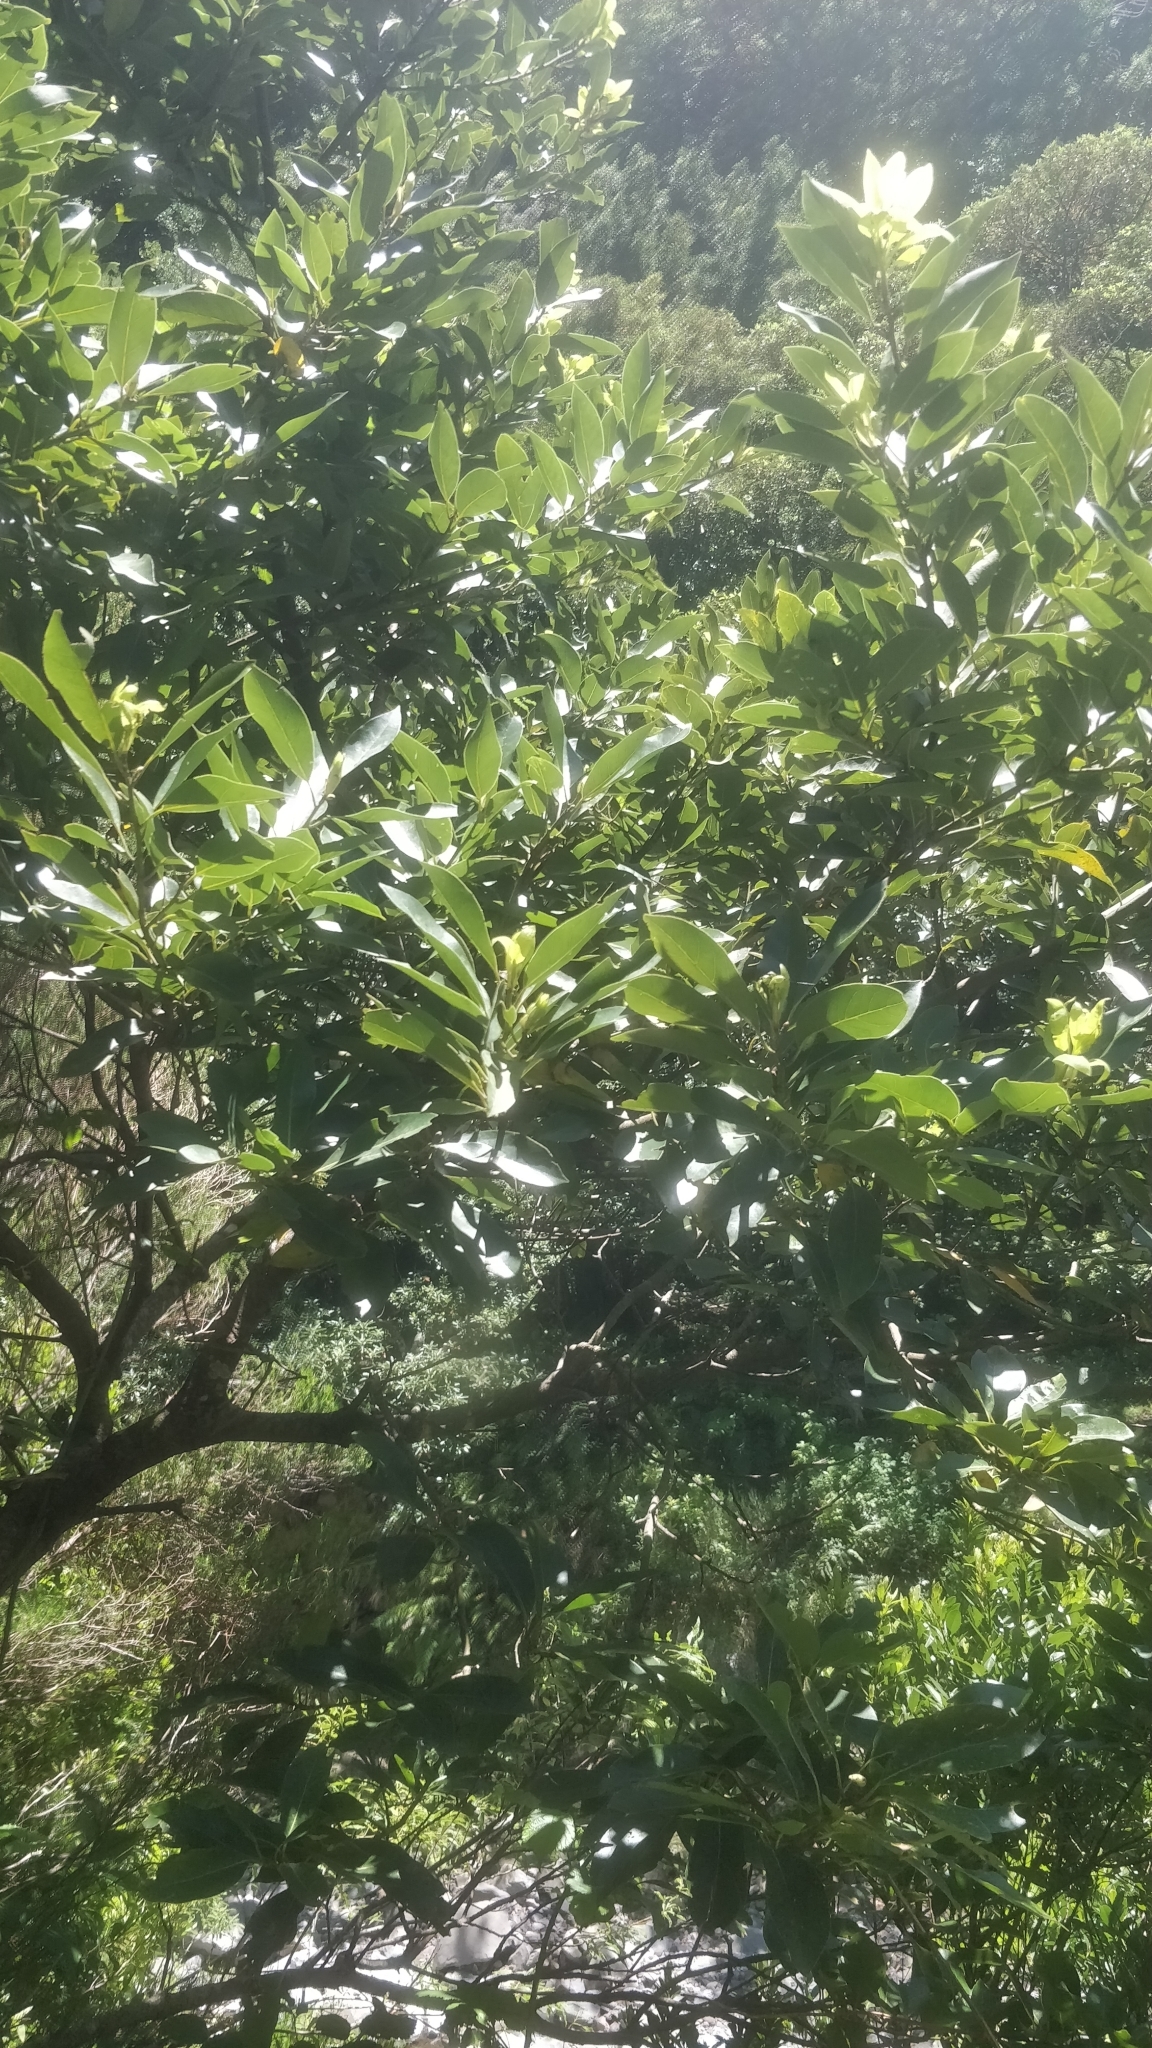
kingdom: Plantae
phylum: Tracheophyta
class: Magnoliopsida
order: Laurales
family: Lauraceae
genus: Laurus
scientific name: Laurus novocanariensis
